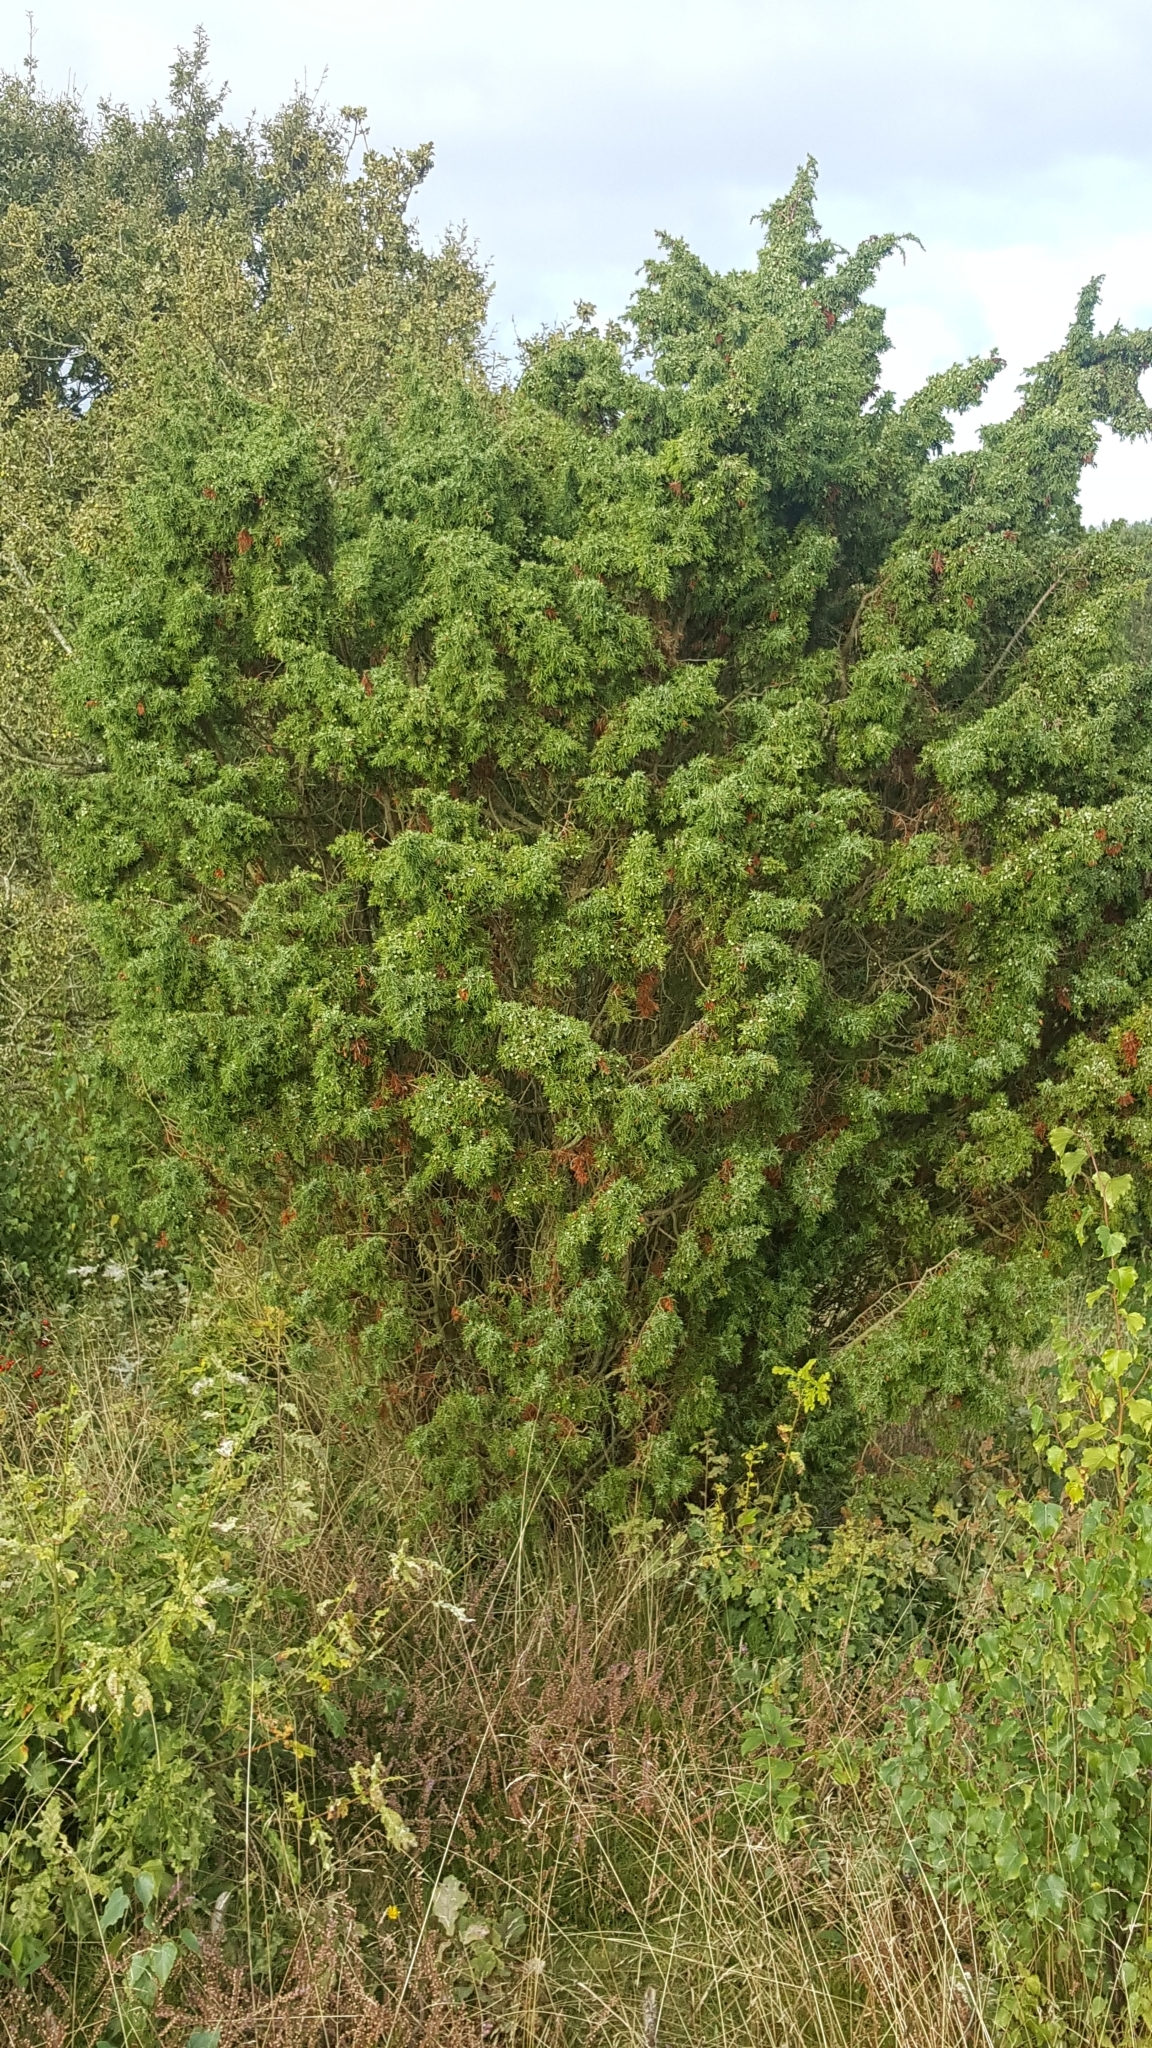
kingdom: Plantae
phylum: Tracheophyta
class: Pinopsida
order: Pinales
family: Cupressaceae
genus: Juniperus
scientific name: Juniperus communis
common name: Common juniper
